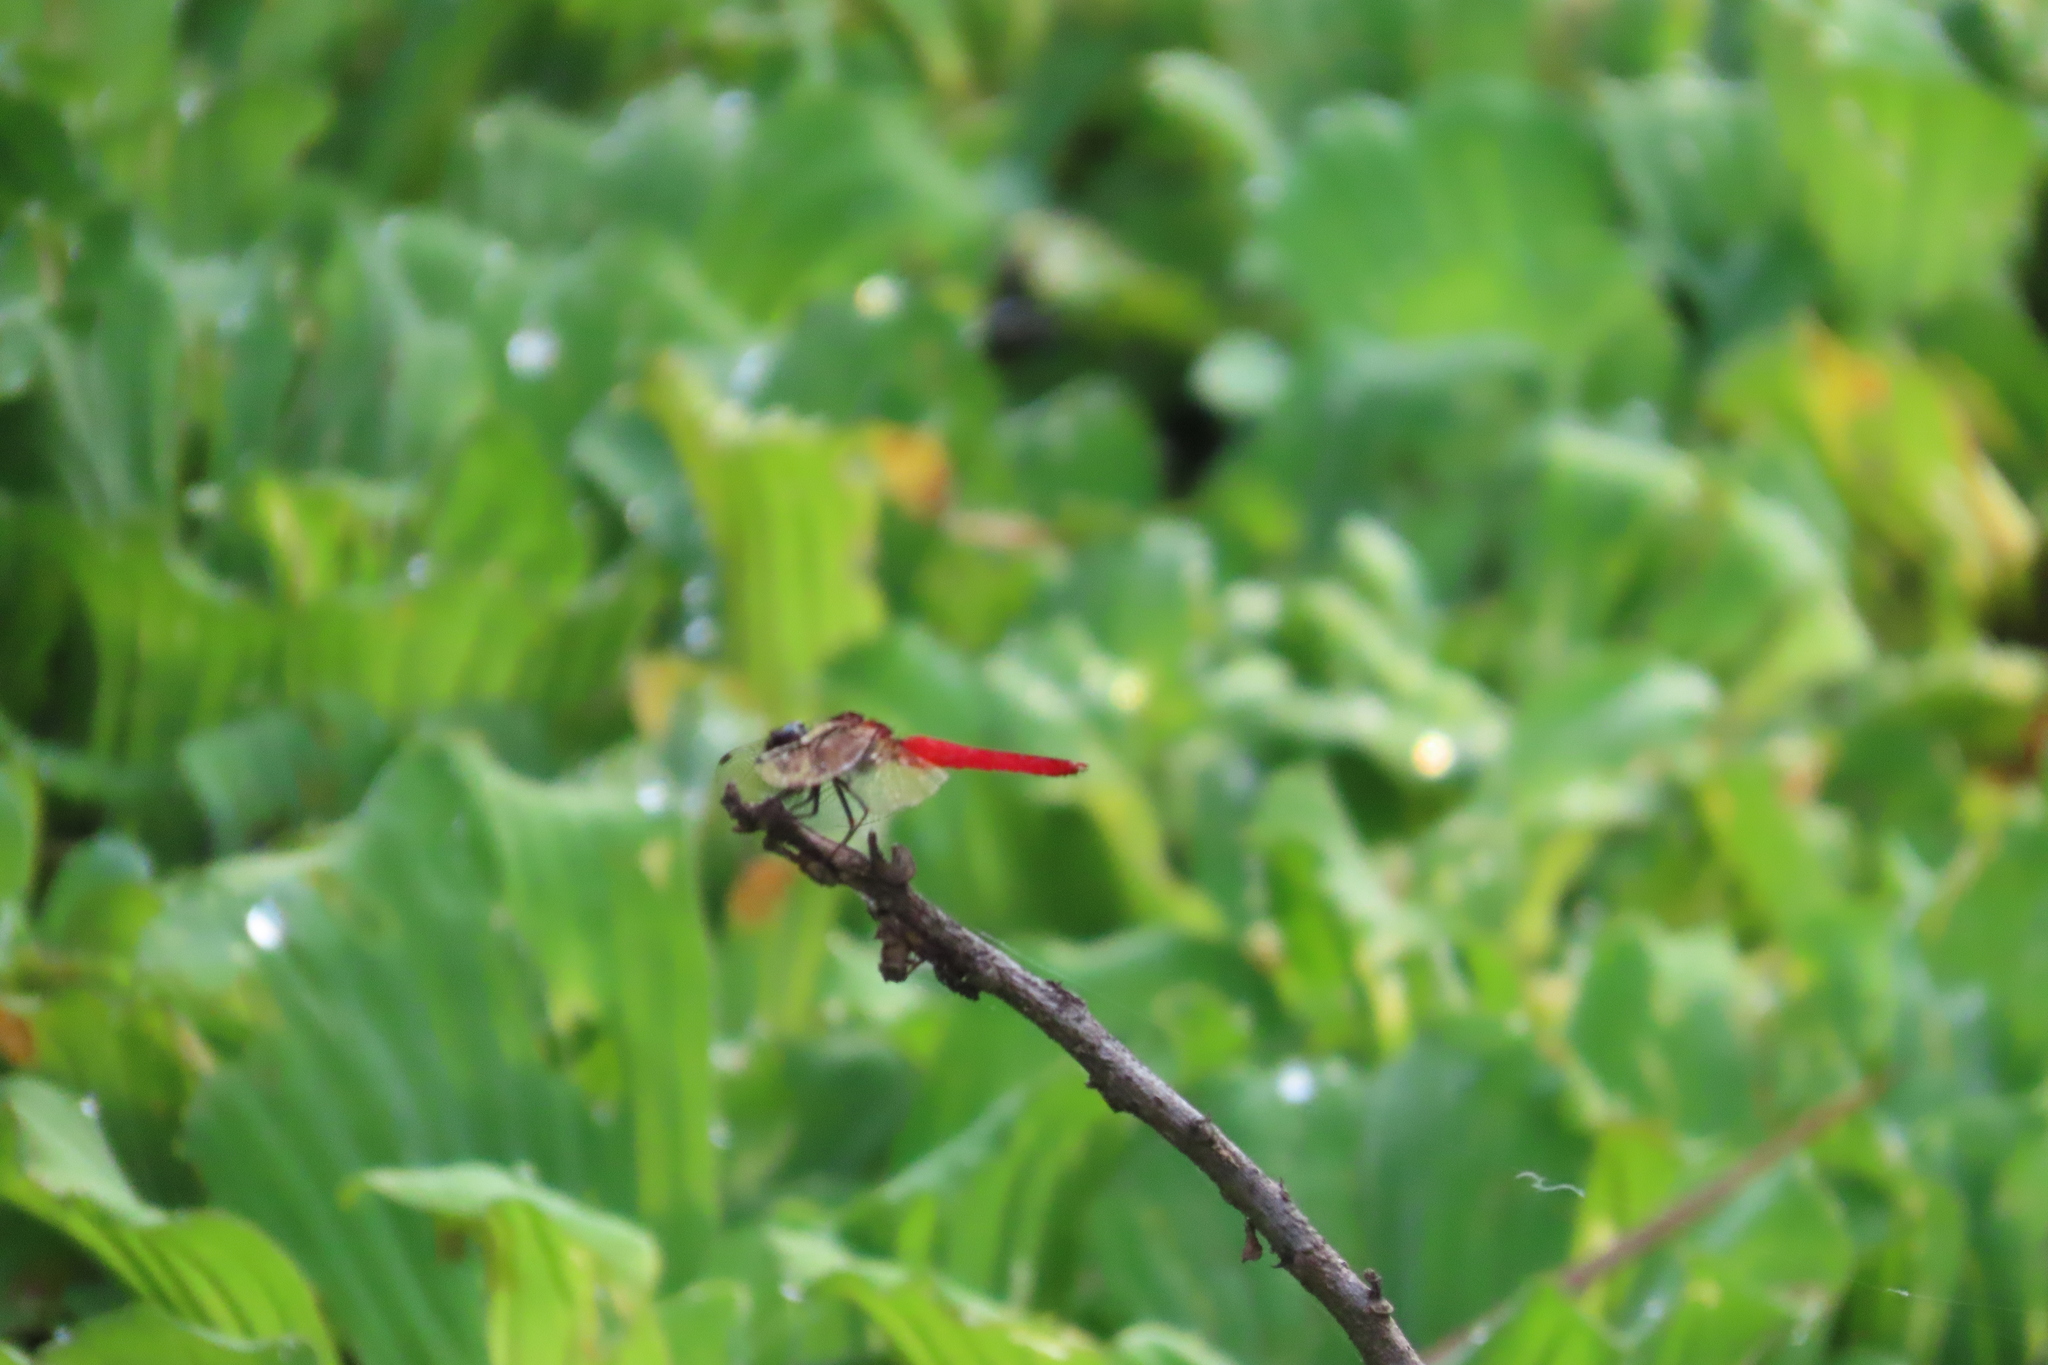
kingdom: Animalia
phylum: Arthropoda
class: Insecta
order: Odonata
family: Libellulidae
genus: Aethriamanta
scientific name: Aethriamanta brevipennis
